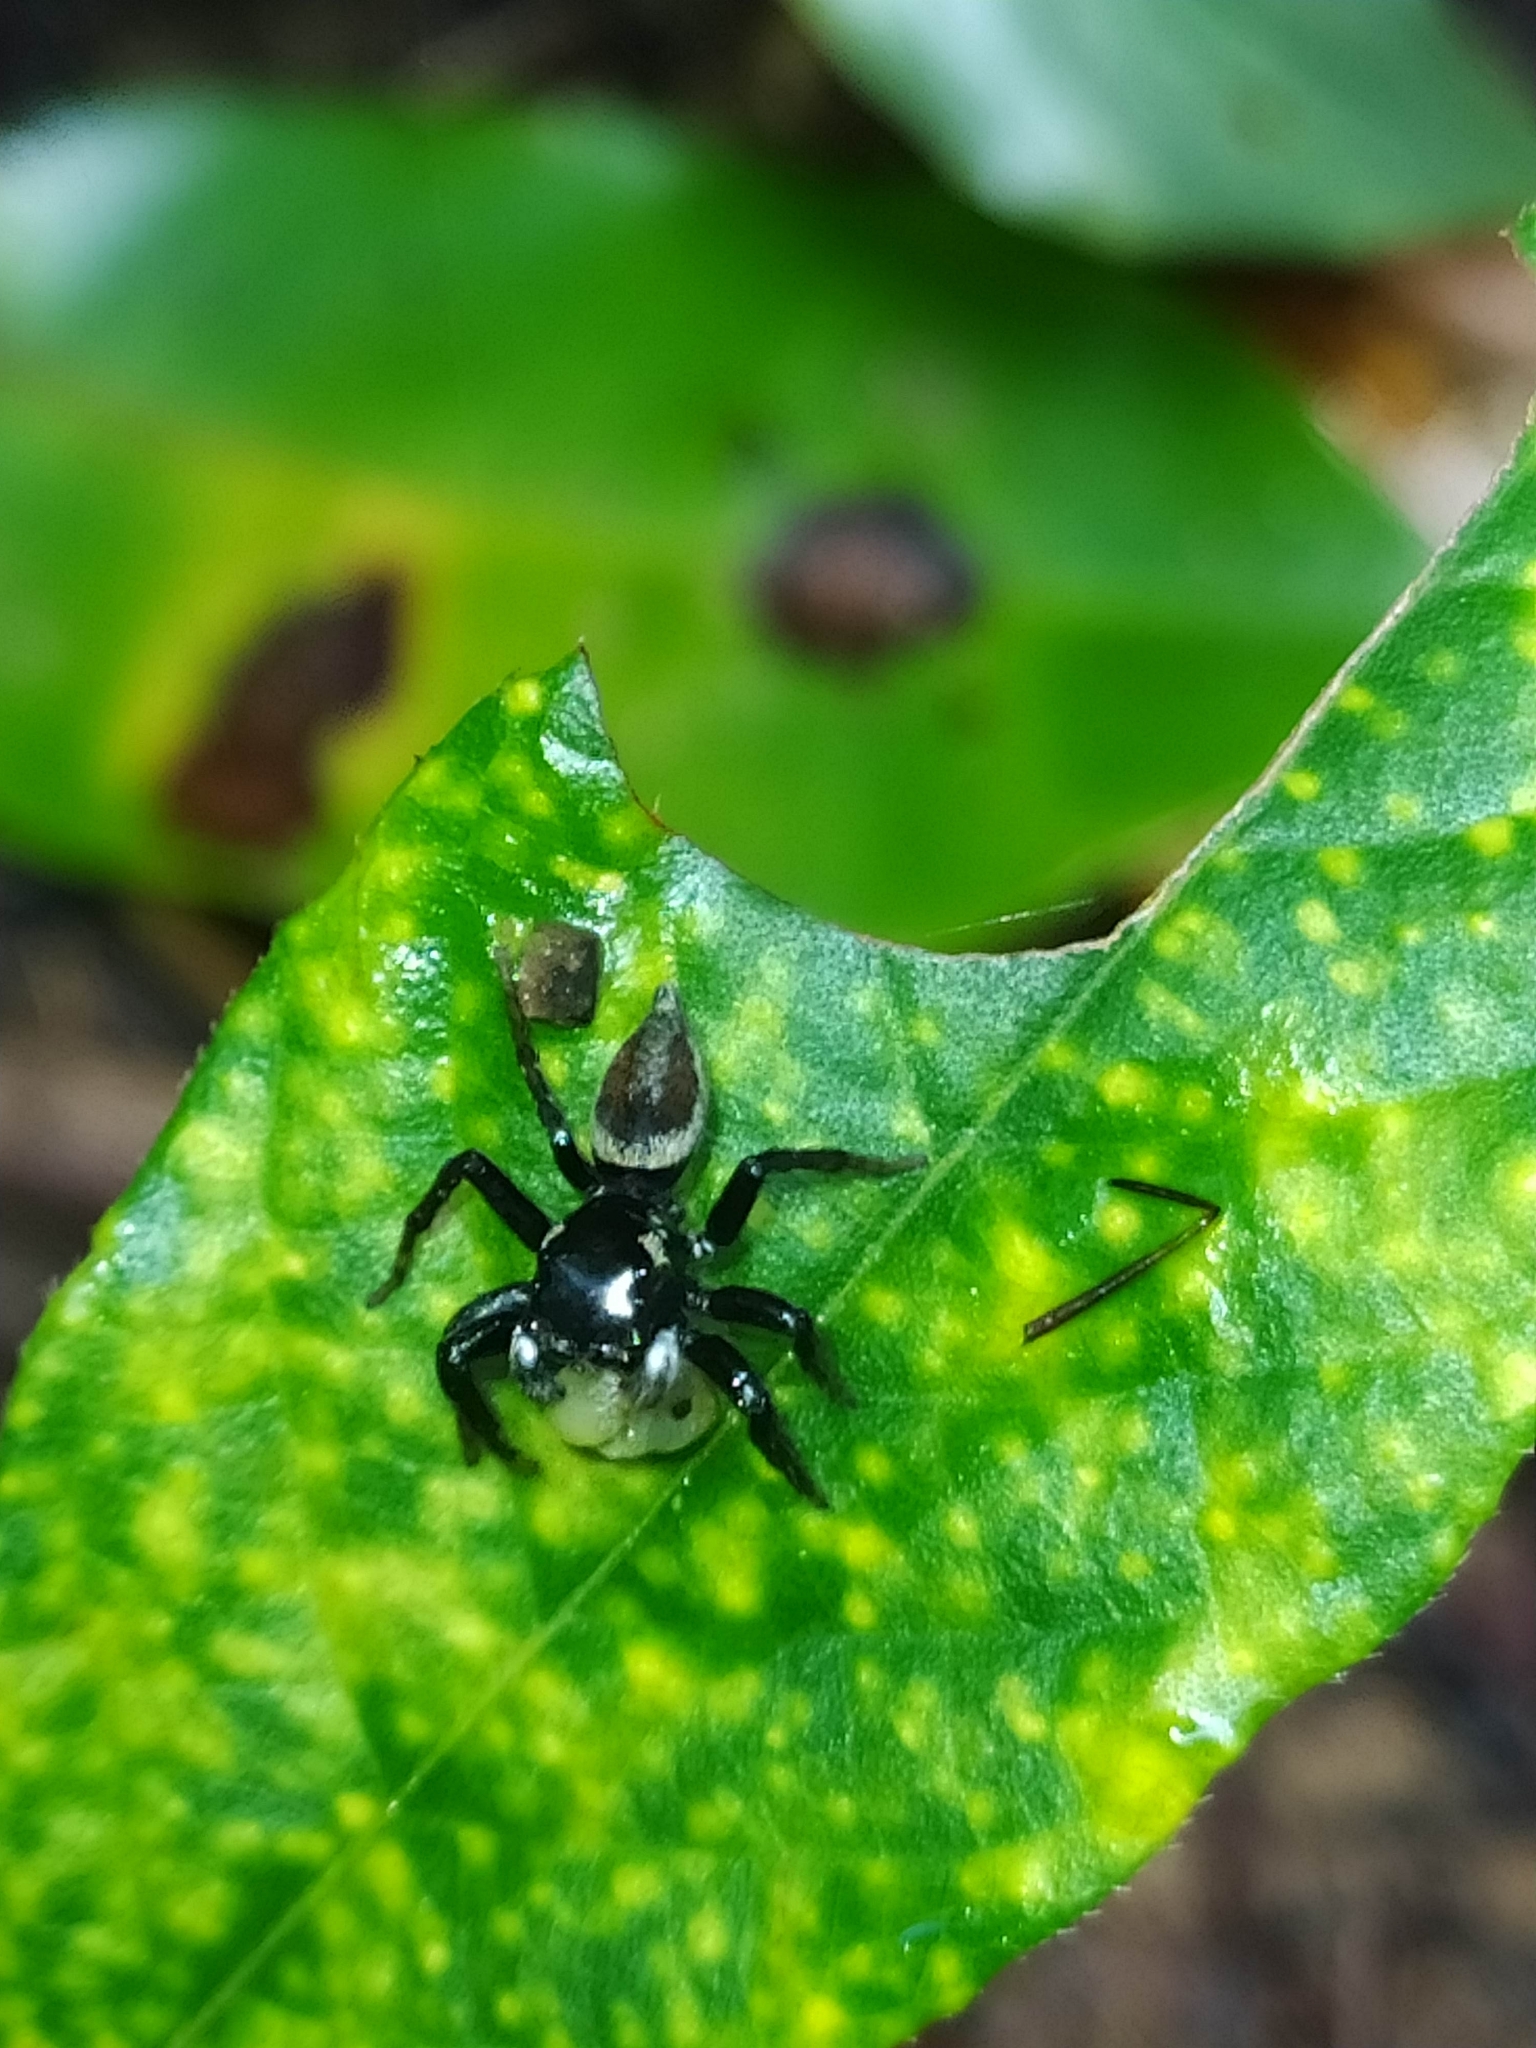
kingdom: Animalia
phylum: Arthropoda
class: Arachnida
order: Araneae
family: Salticidae
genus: Kalcerrytus
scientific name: Kalcerrytus
